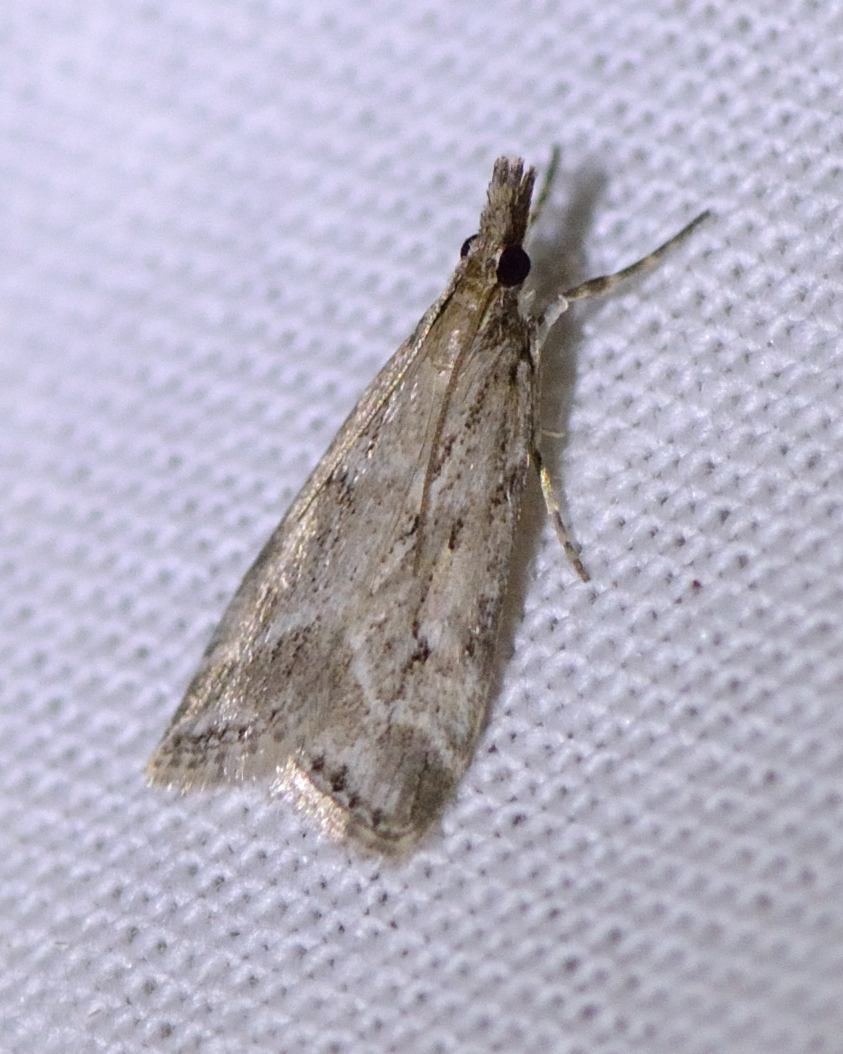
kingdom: Animalia
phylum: Arthropoda
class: Insecta
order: Lepidoptera
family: Crambidae
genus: Eudonia
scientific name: Eudonia truncicolella
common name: Ground-moss grey
